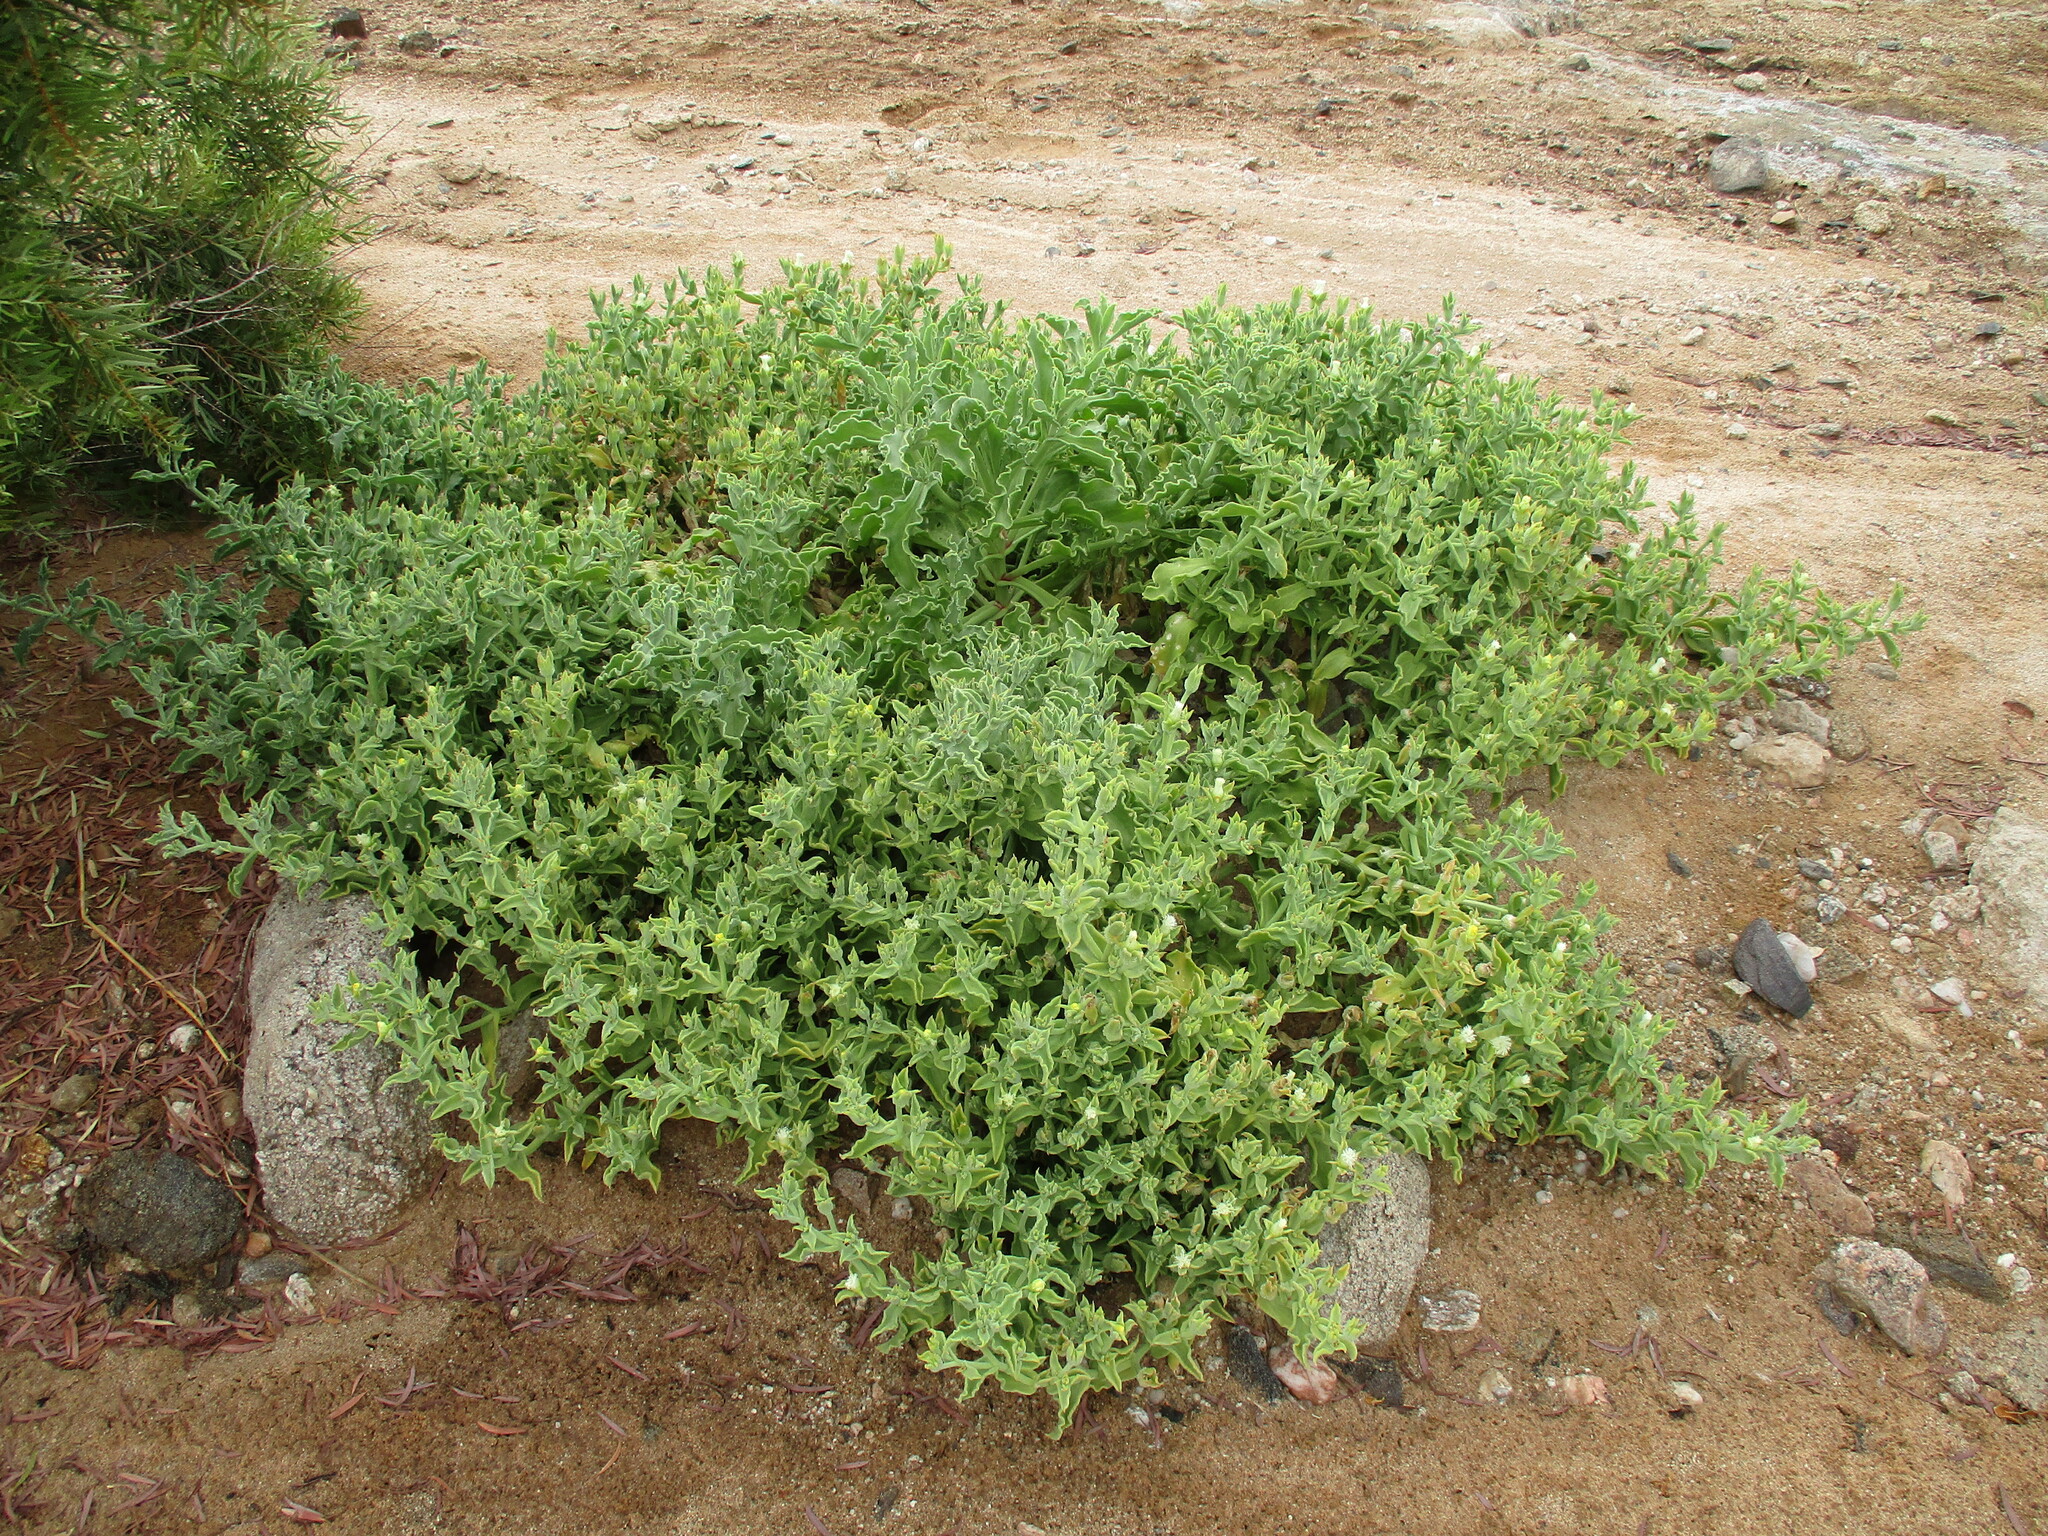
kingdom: Plantae
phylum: Tracheophyta
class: Magnoliopsida
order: Caryophyllales
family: Aizoaceae
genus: Mesembryanthemum
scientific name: Mesembryanthemum guerichianum
